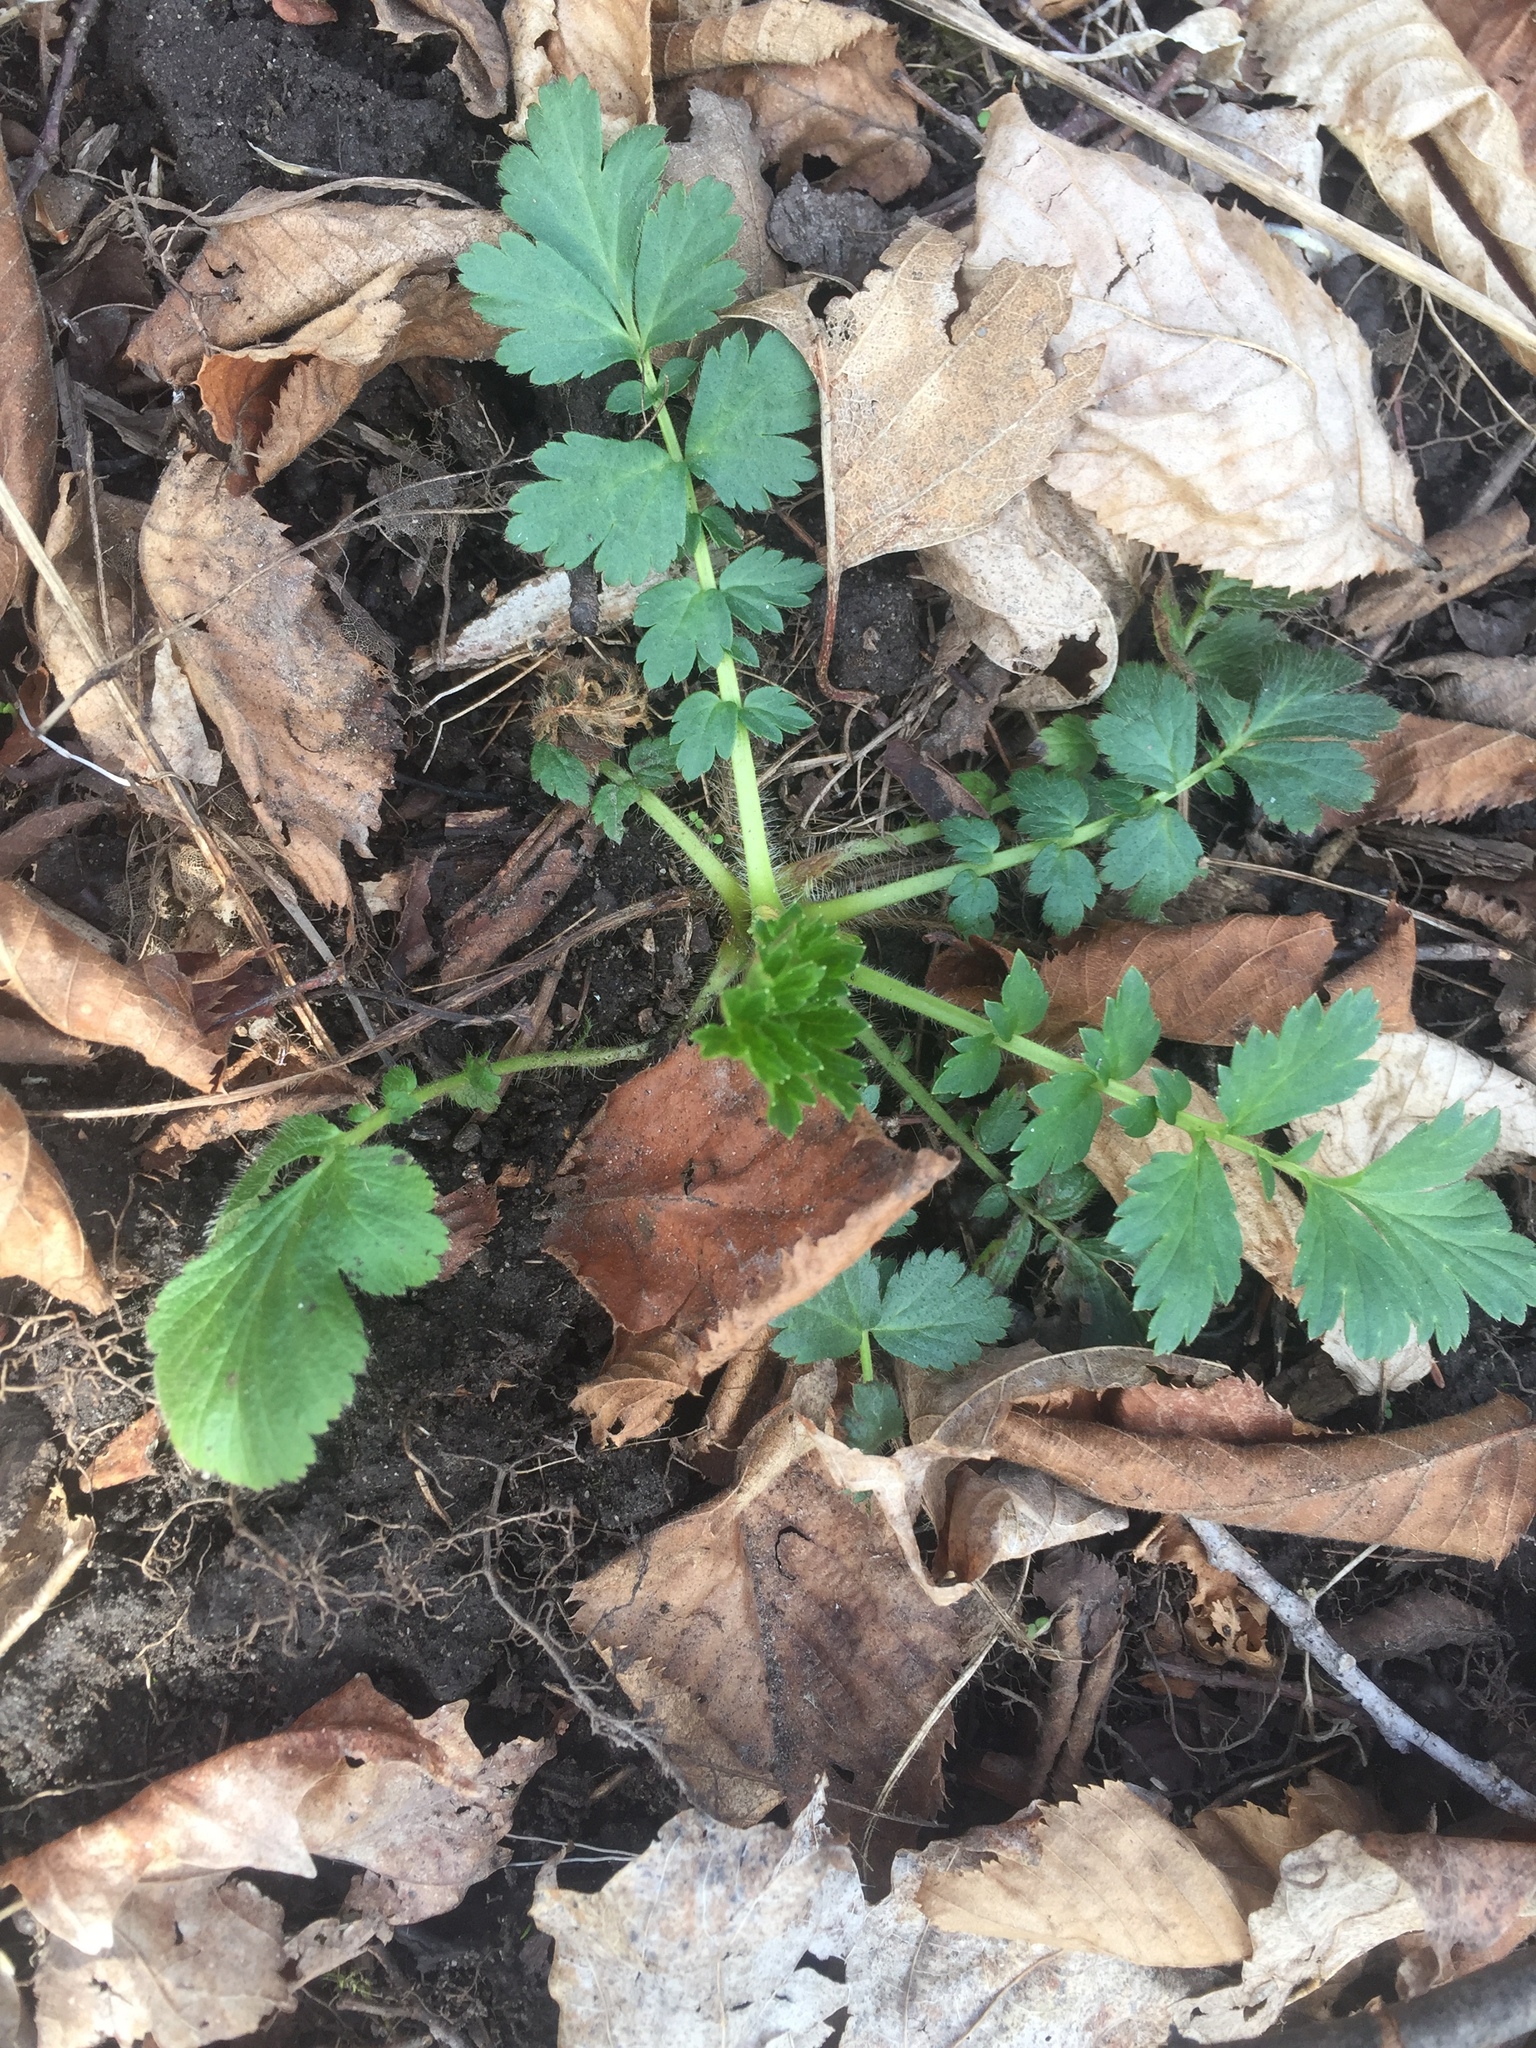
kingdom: Plantae
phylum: Tracheophyta
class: Magnoliopsida
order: Rosales
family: Rosaceae
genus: Geum
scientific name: Geum aleppicum
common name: Yellow avens
